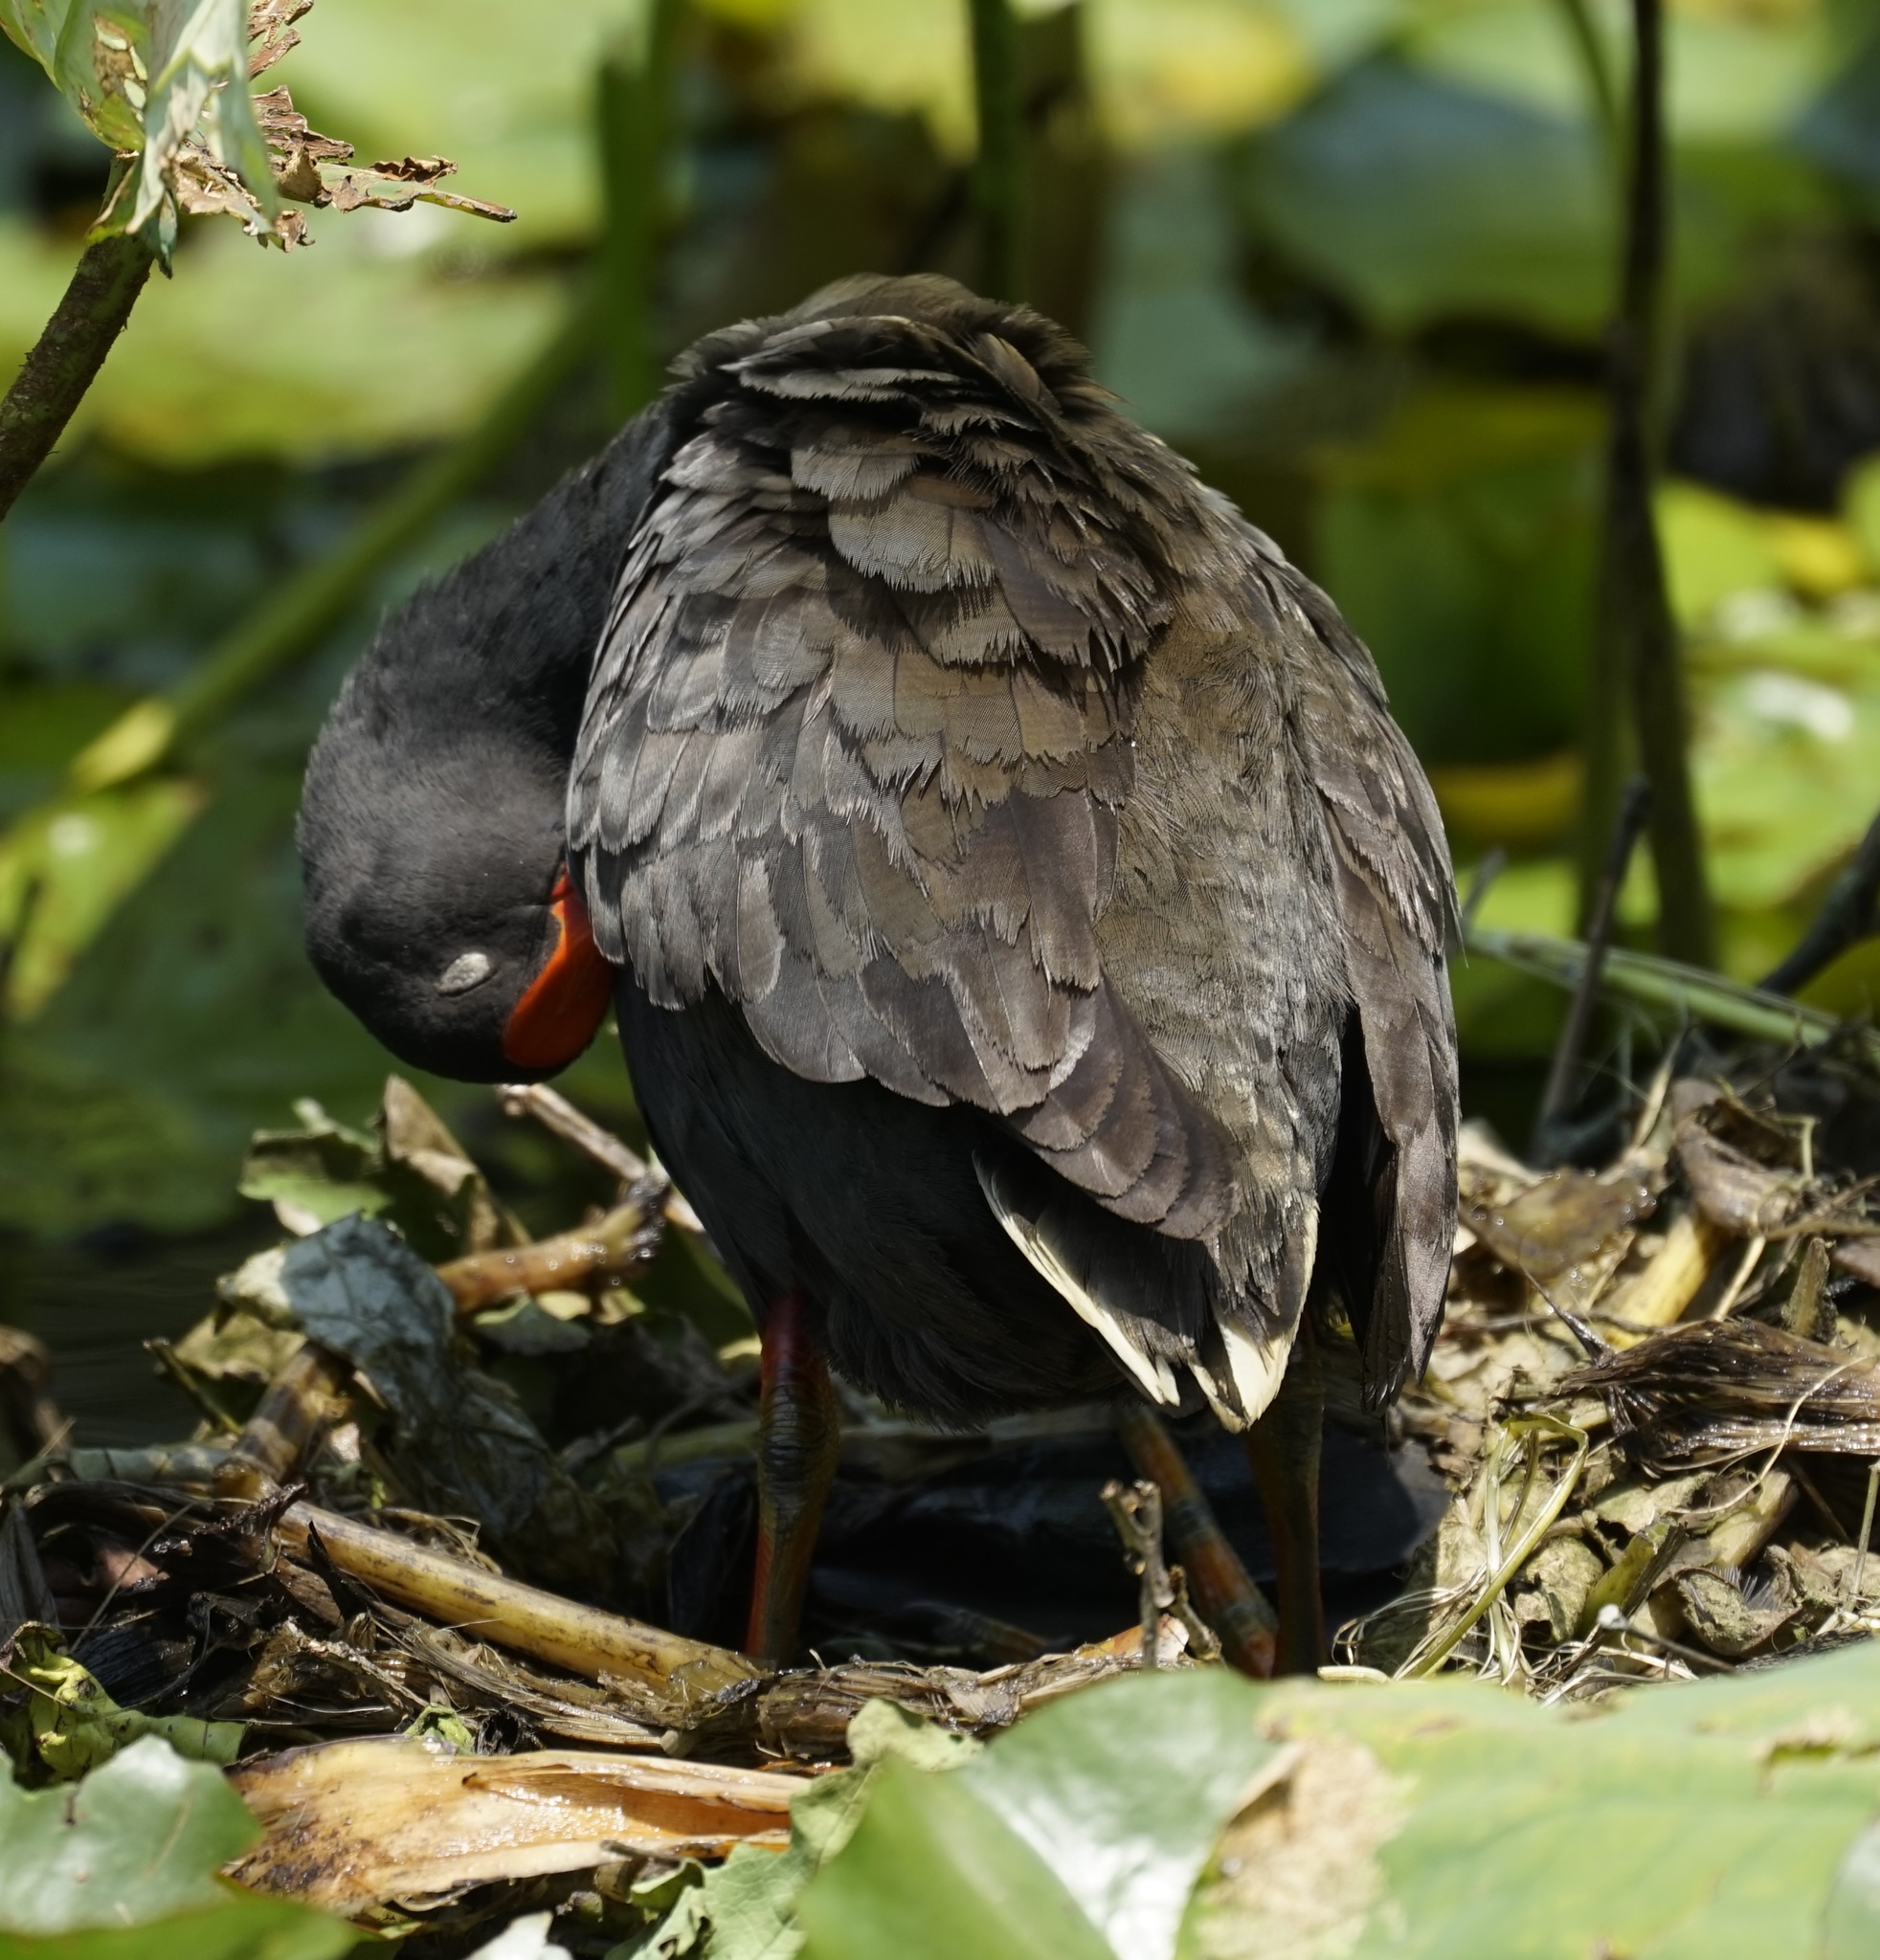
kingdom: Animalia
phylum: Chordata
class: Aves
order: Gruiformes
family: Rallidae
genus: Gallinula
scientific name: Gallinula tenebrosa
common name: Dusky moorhen
